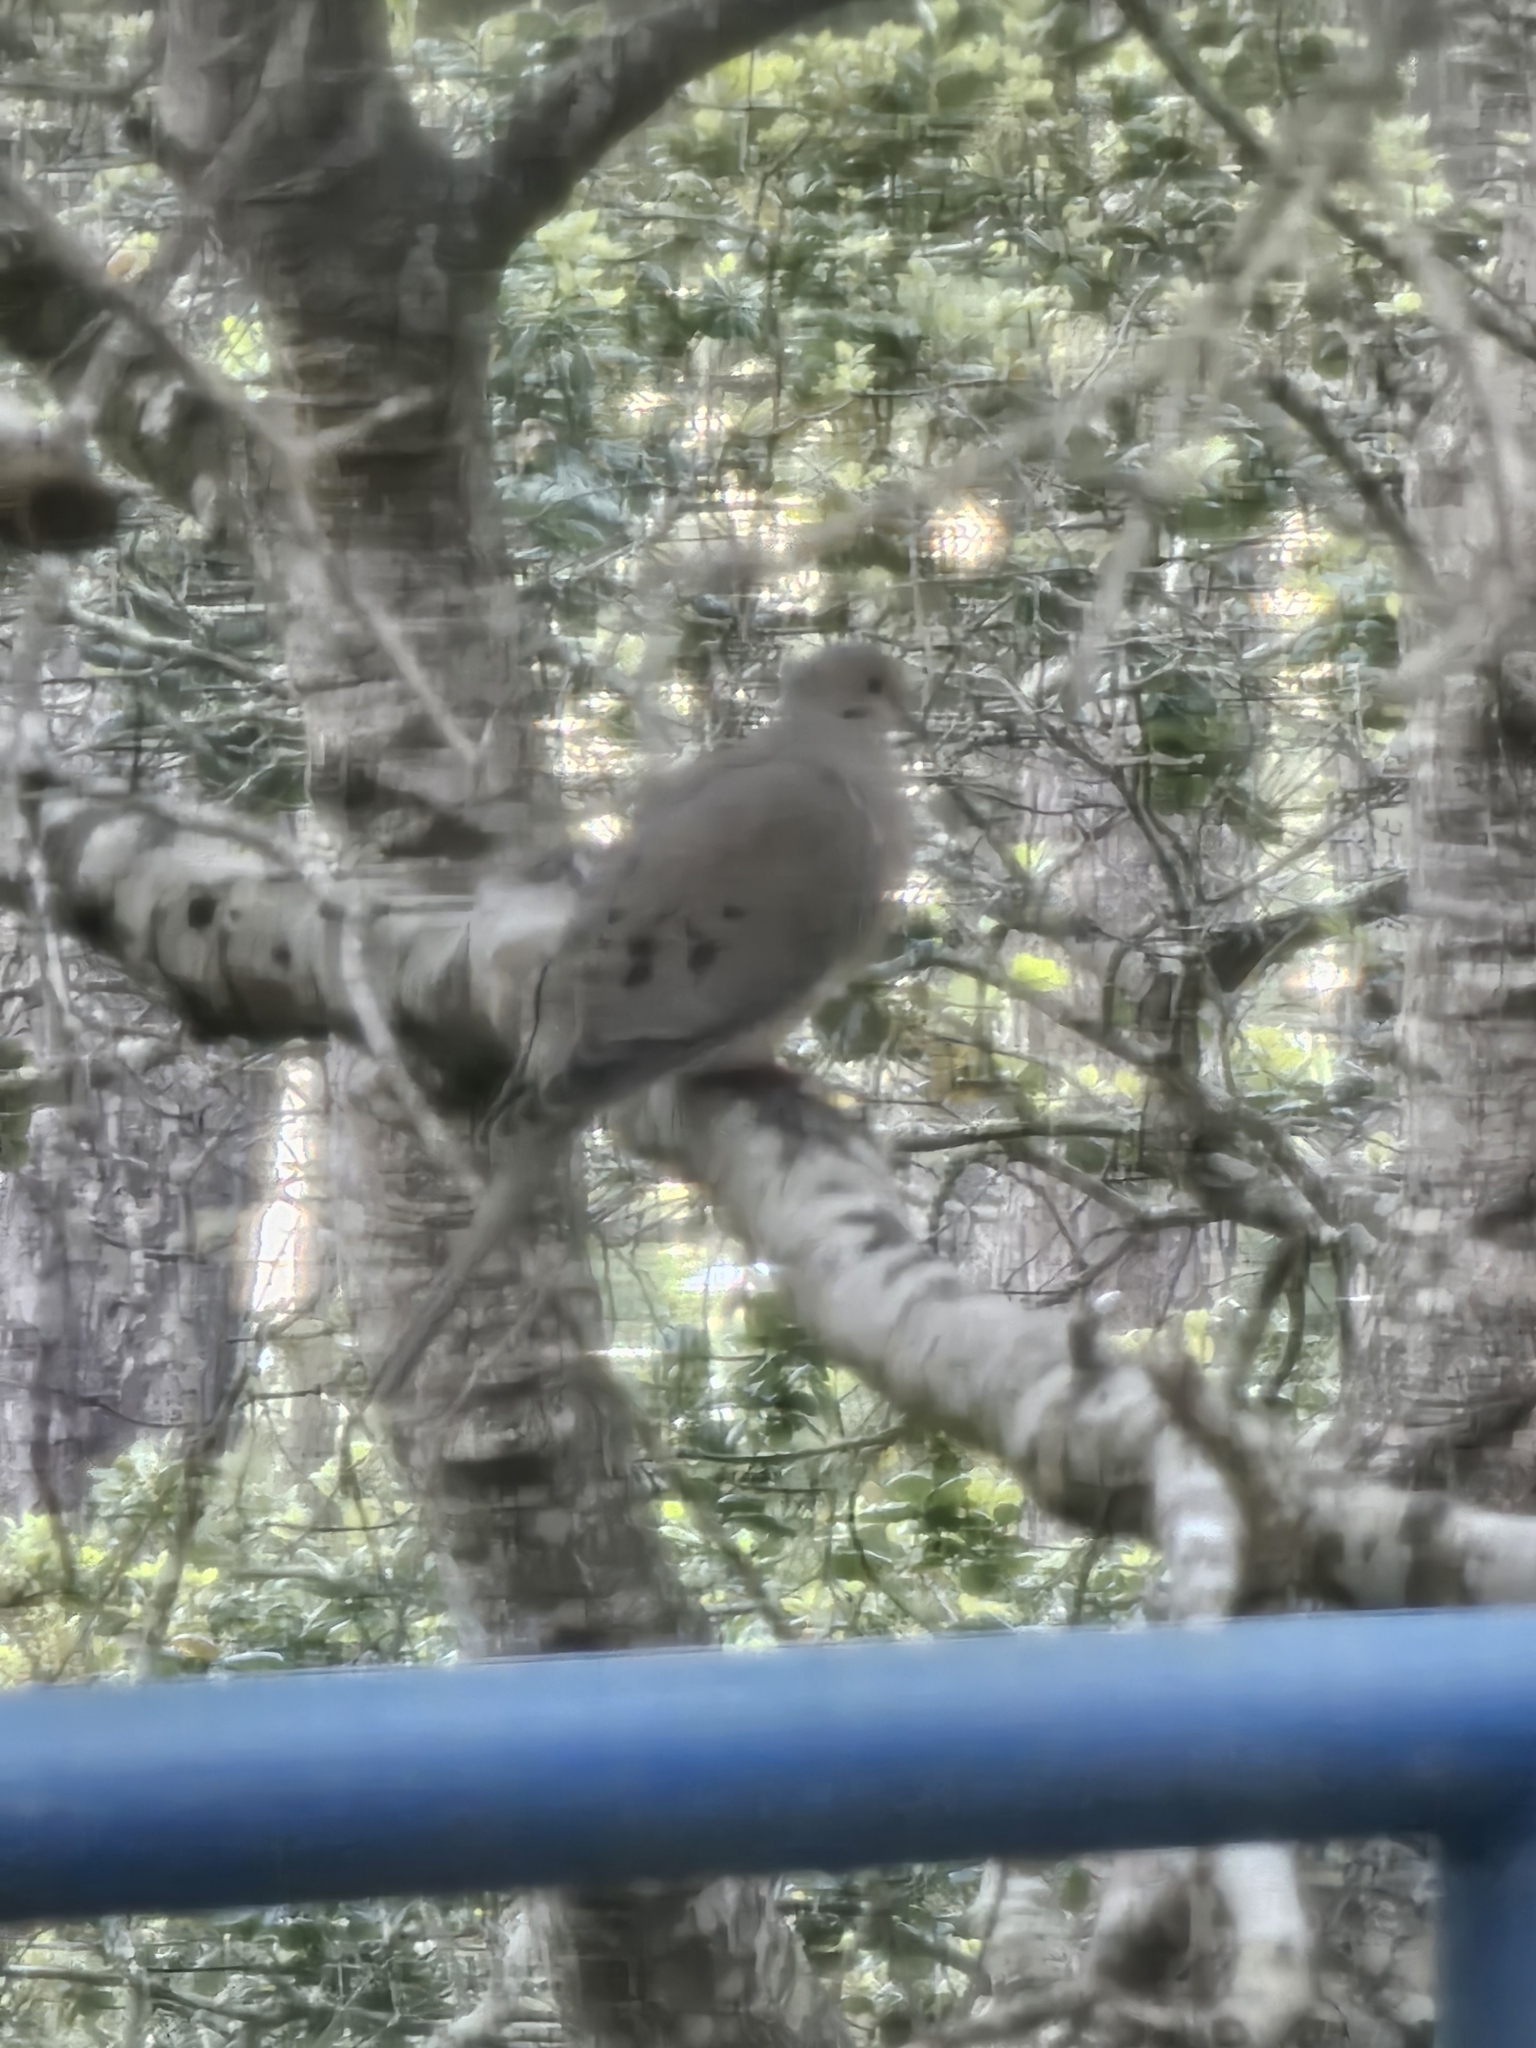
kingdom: Animalia
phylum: Chordata
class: Aves
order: Columbiformes
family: Columbidae
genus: Zenaida
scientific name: Zenaida macroura
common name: Mourning dove
